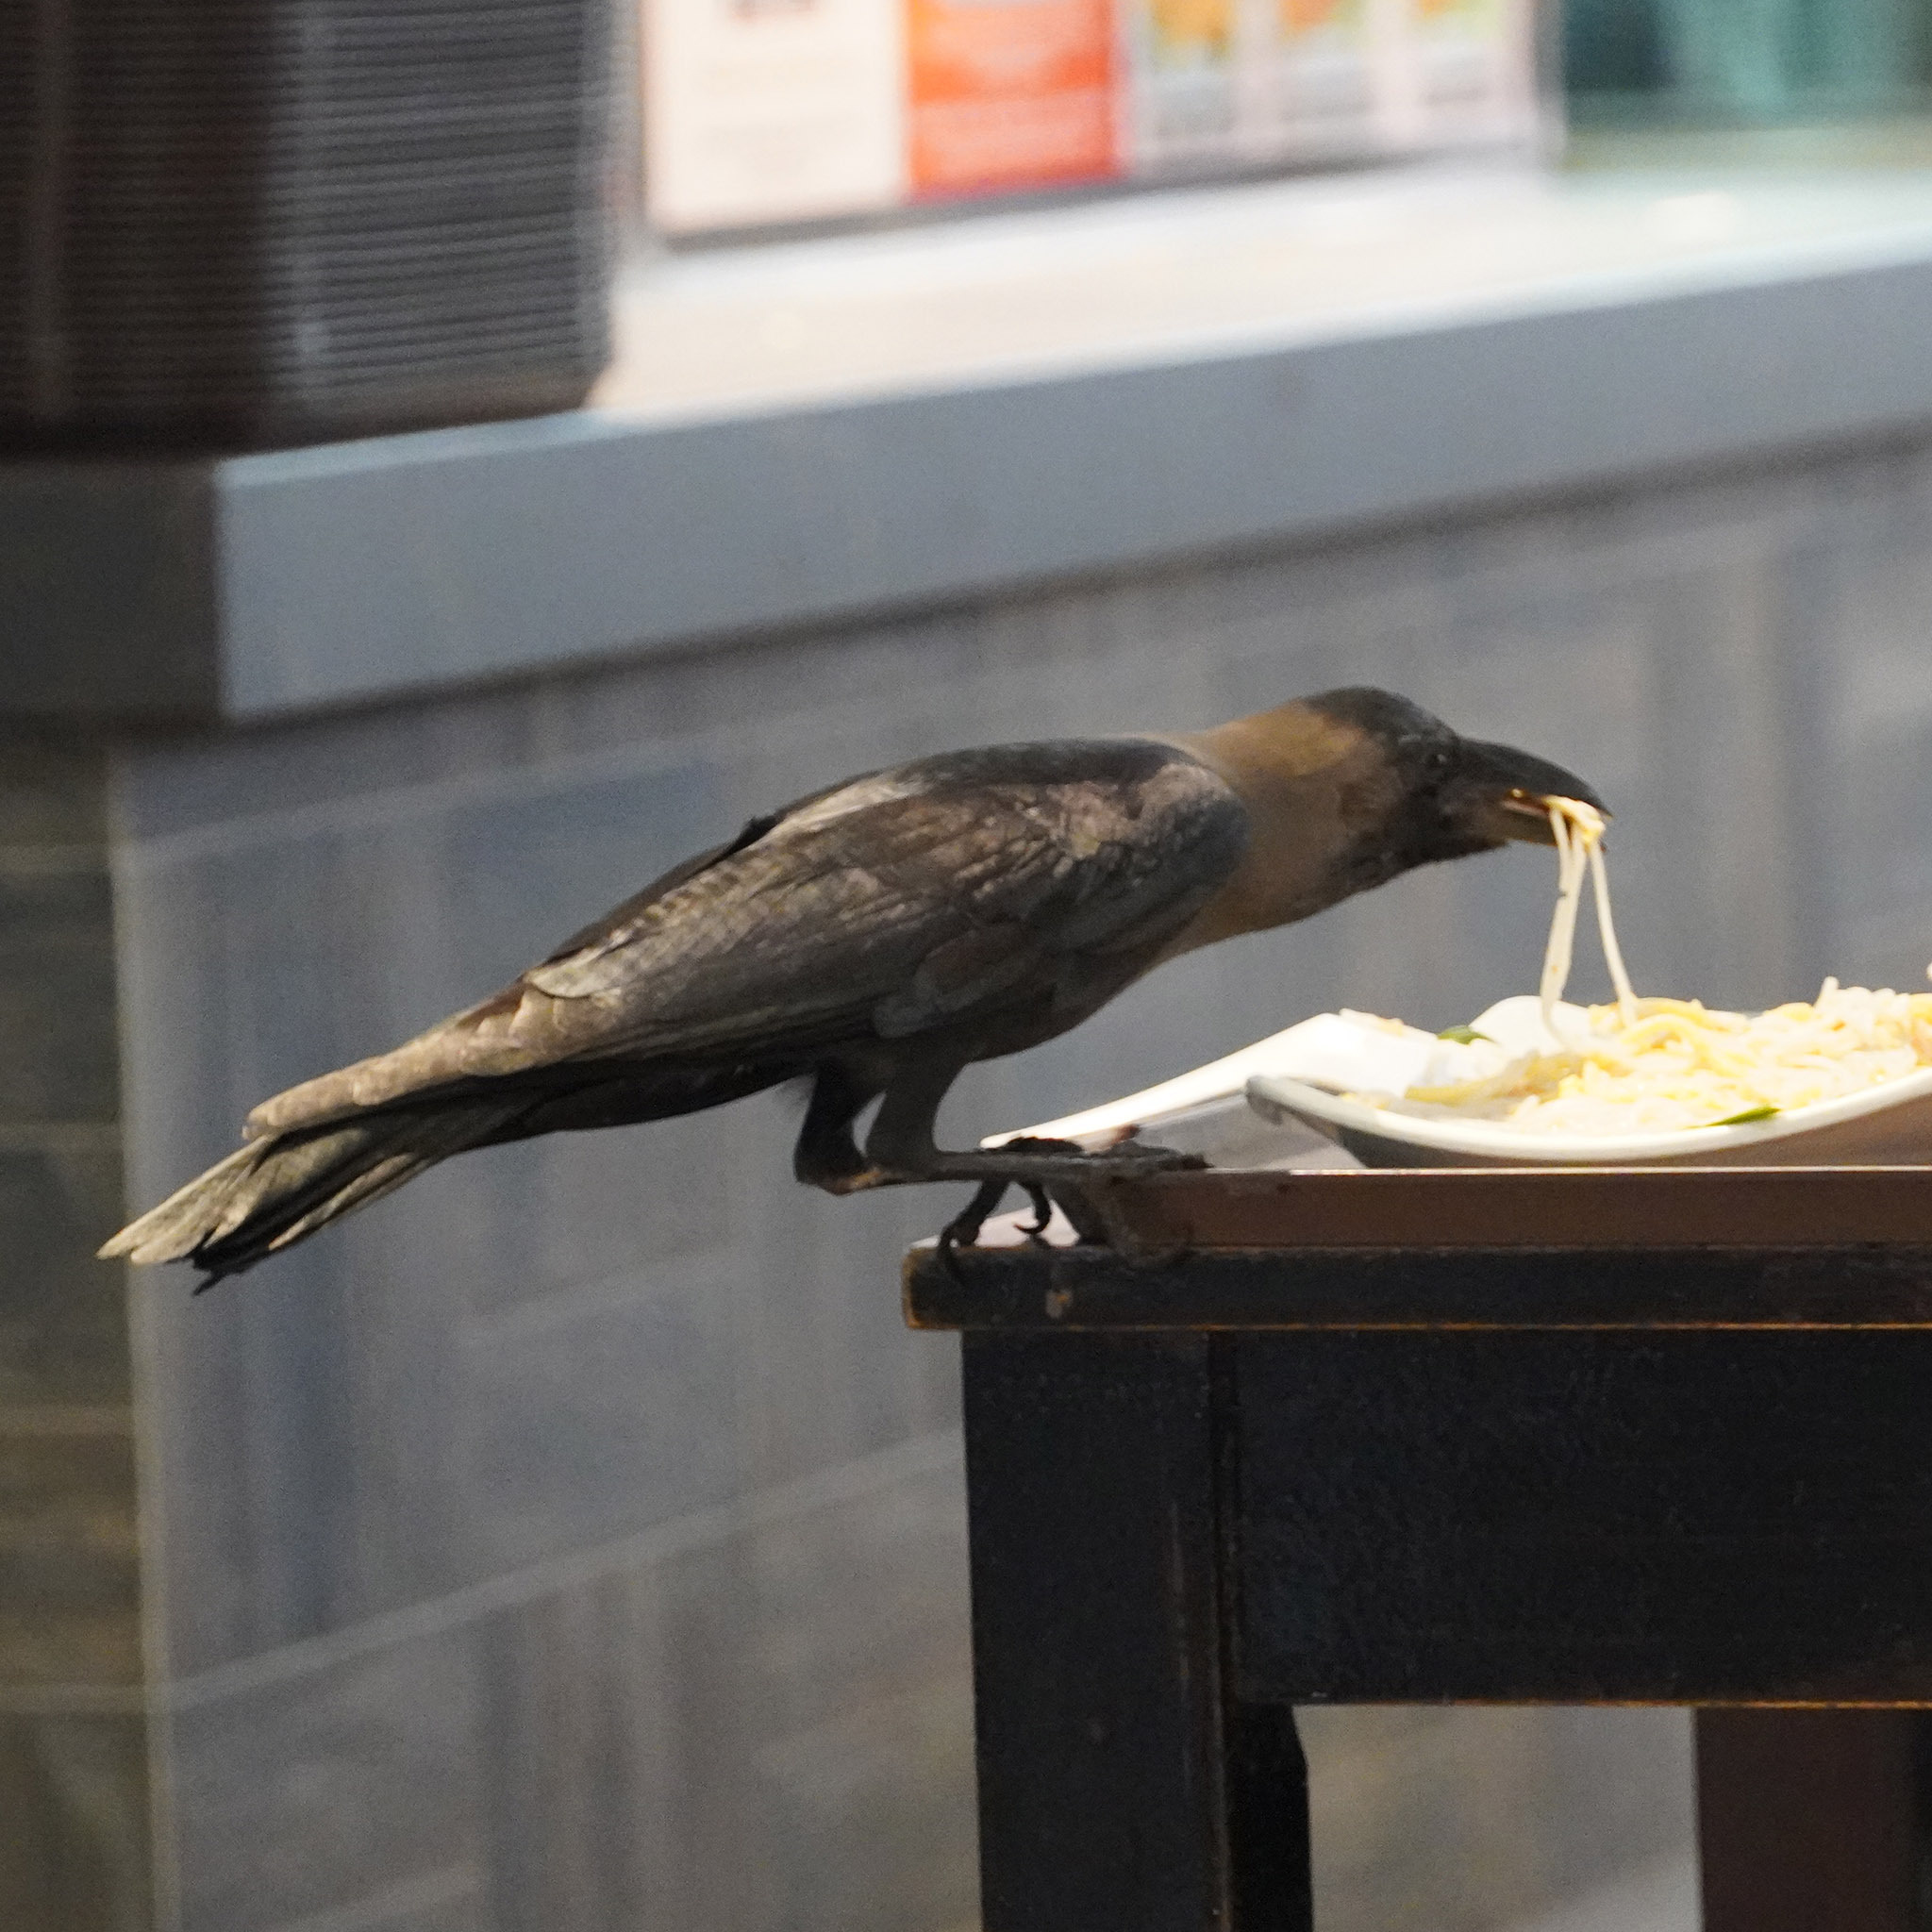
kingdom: Animalia
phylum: Chordata
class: Aves
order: Passeriformes
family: Corvidae
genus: Corvus
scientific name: Corvus splendens
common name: House crow
